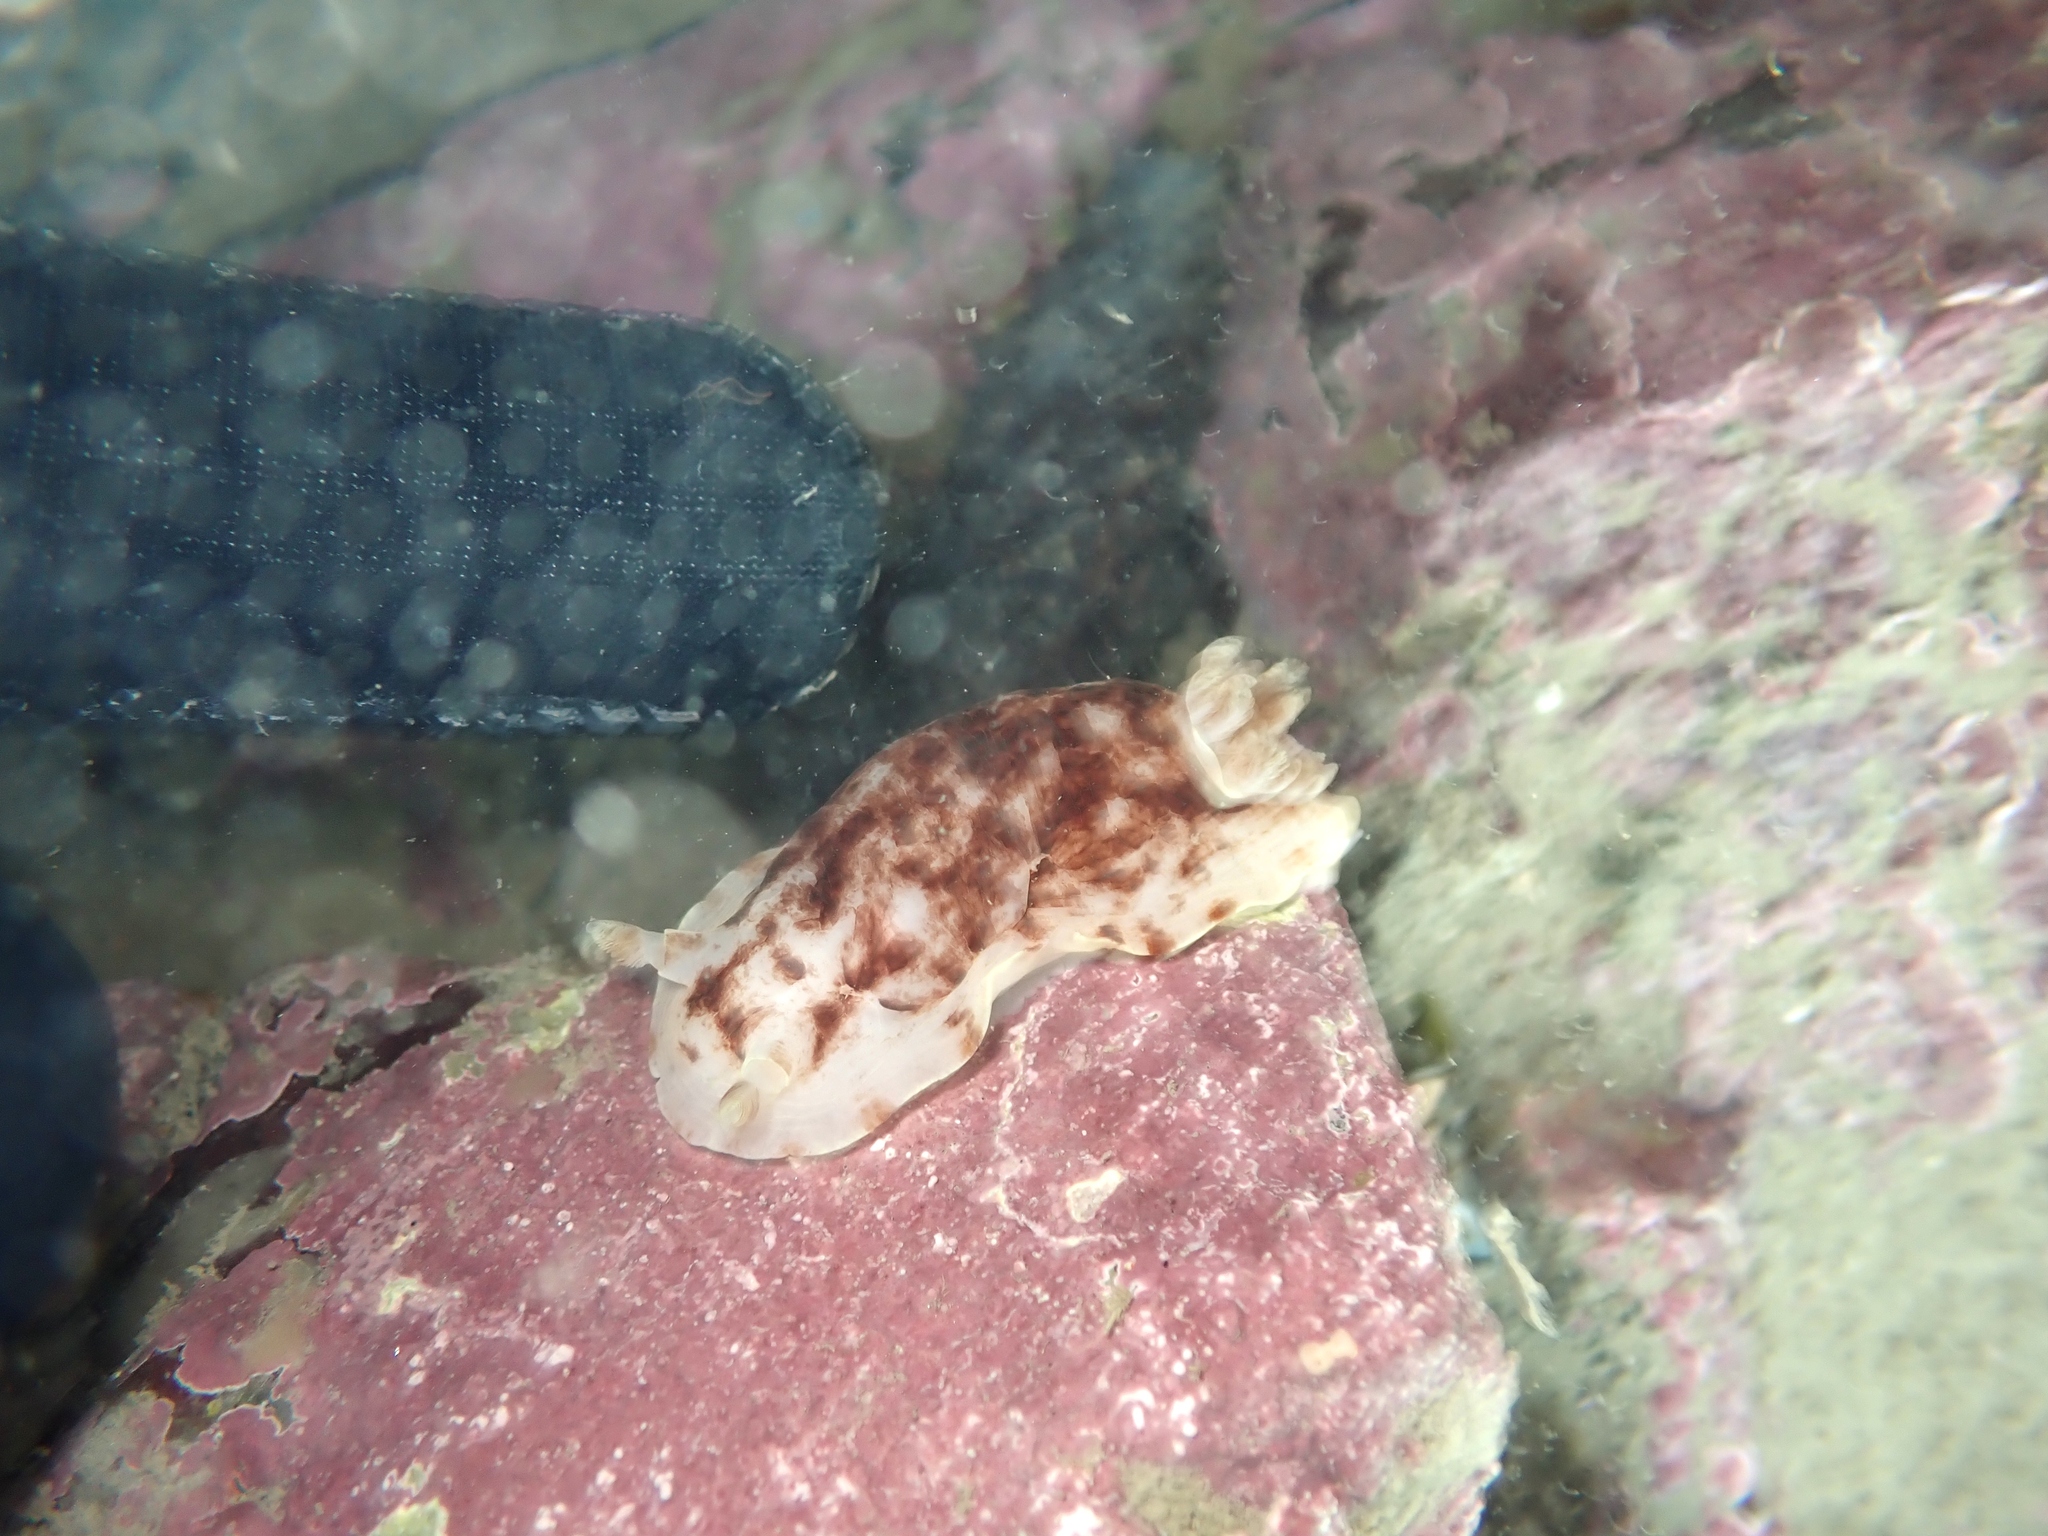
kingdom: Animalia
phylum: Mollusca
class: Gastropoda
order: Nudibranchia
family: Dorididae
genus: Aphelodoris
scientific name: Aphelodoris luctuosa
